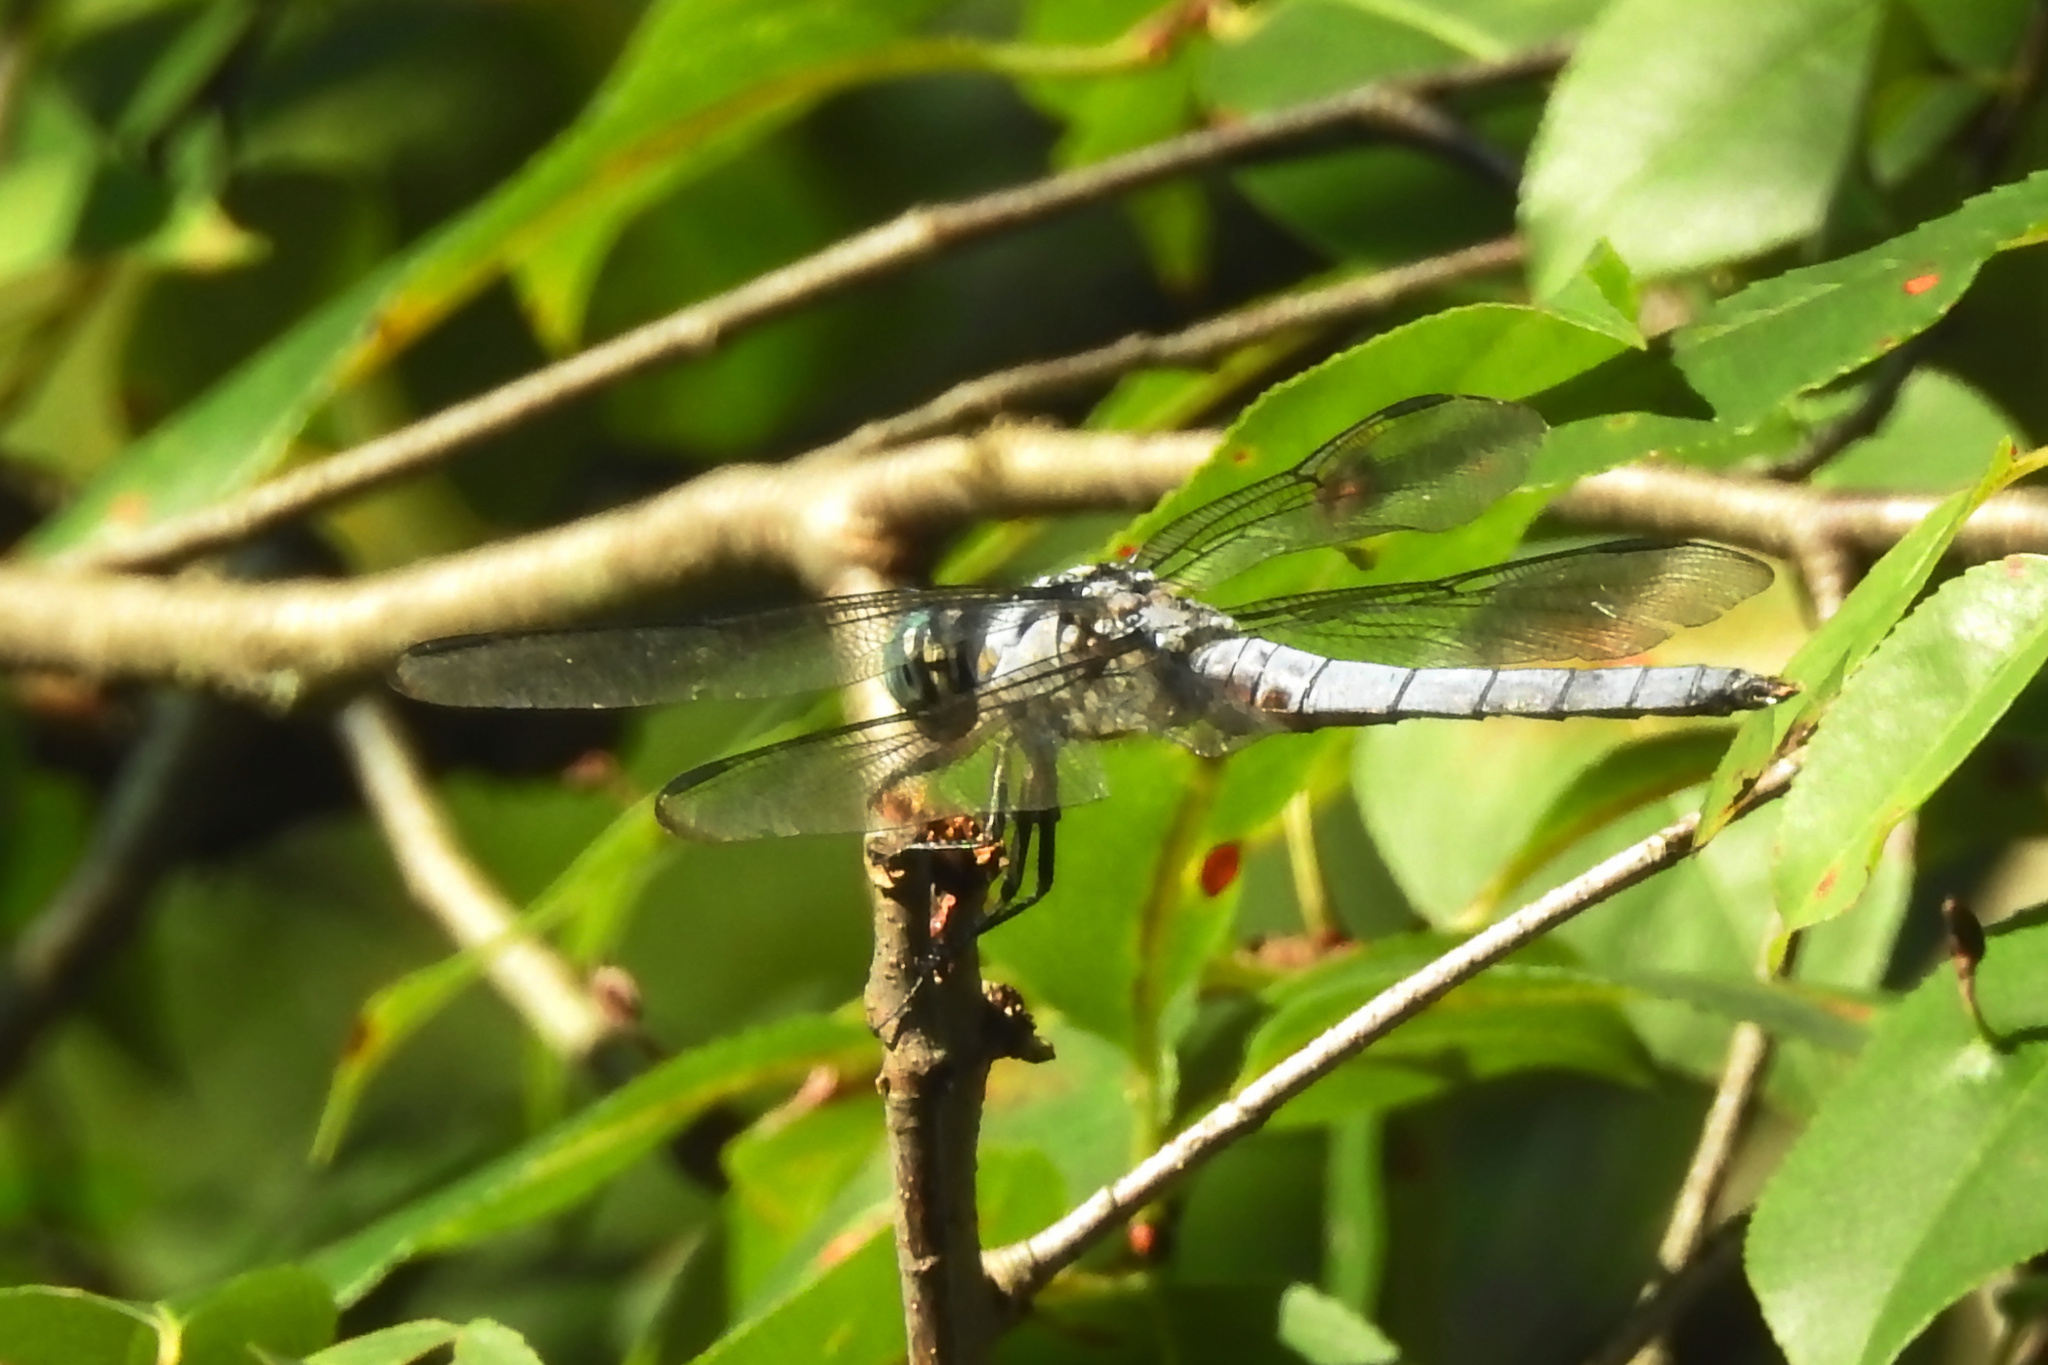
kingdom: Animalia
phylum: Arthropoda
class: Insecta
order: Odonata
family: Libellulidae
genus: Libellula
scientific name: Libellula vibrans
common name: Great blue skimmer
